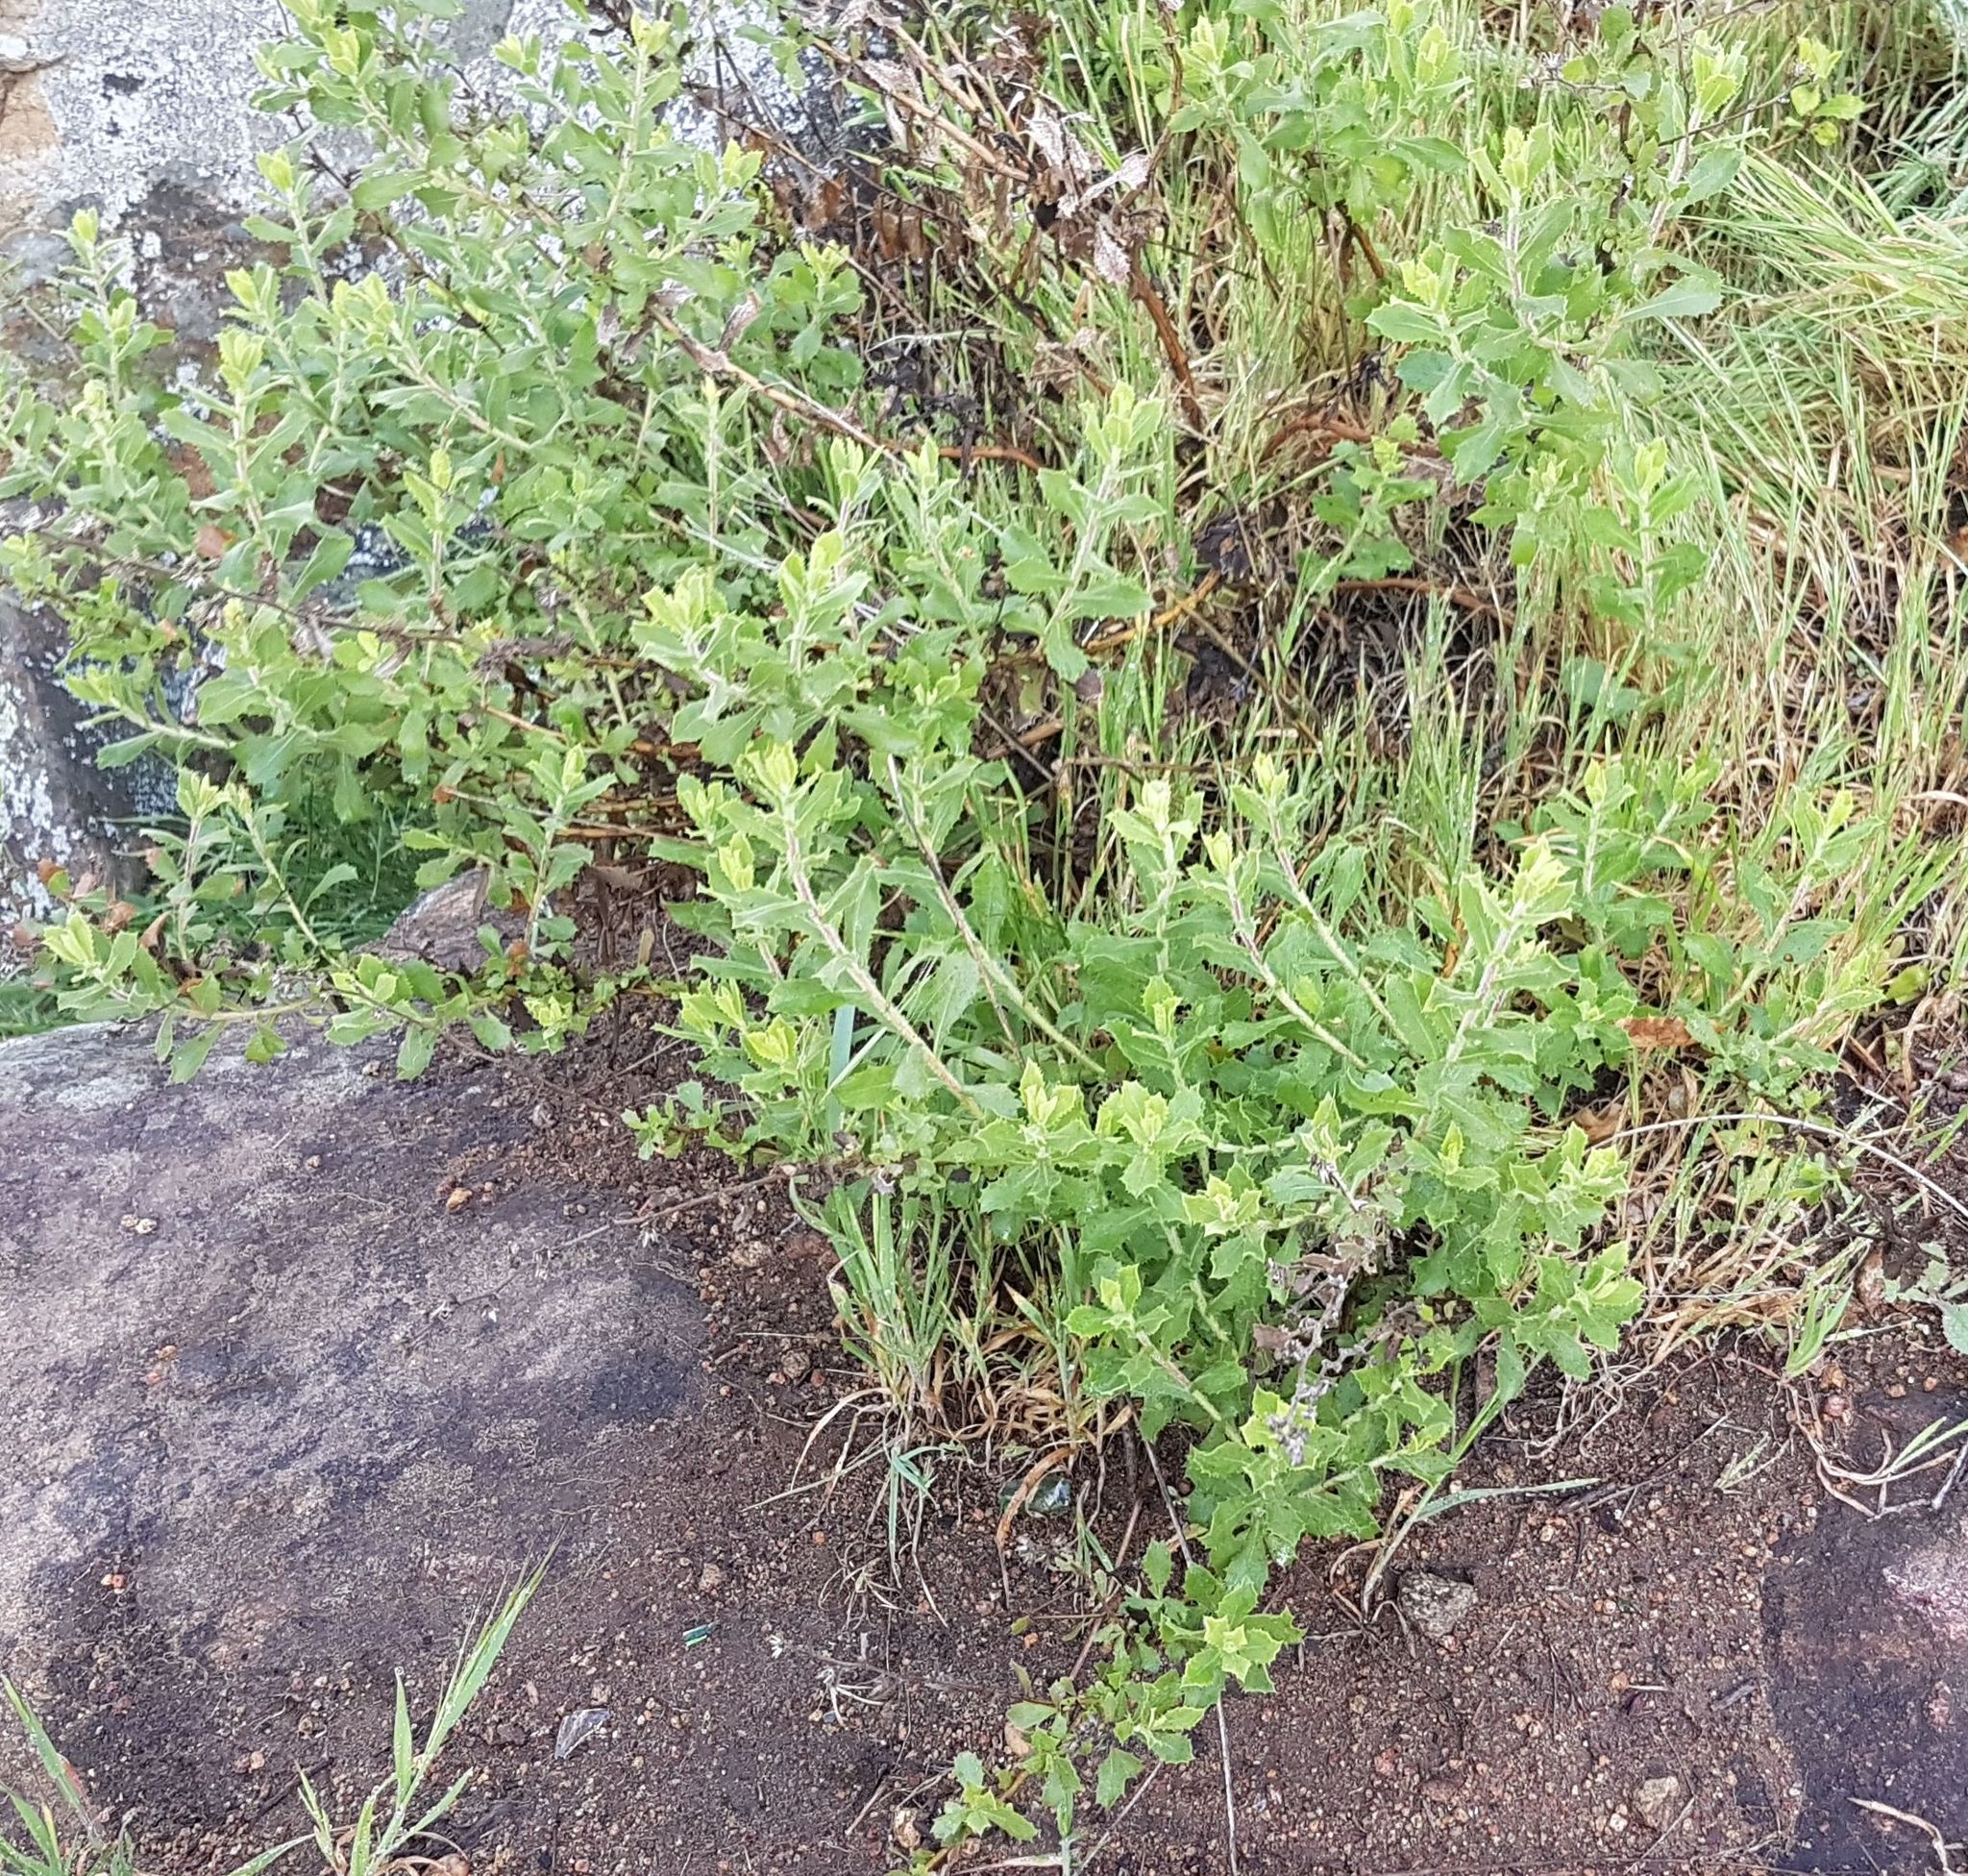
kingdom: Plantae
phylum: Tracheophyta
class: Magnoliopsida
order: Asterales
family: Asteraceae
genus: Hazardia
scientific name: Hazardia squarrosa
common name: Saw-tooth goldenbush
